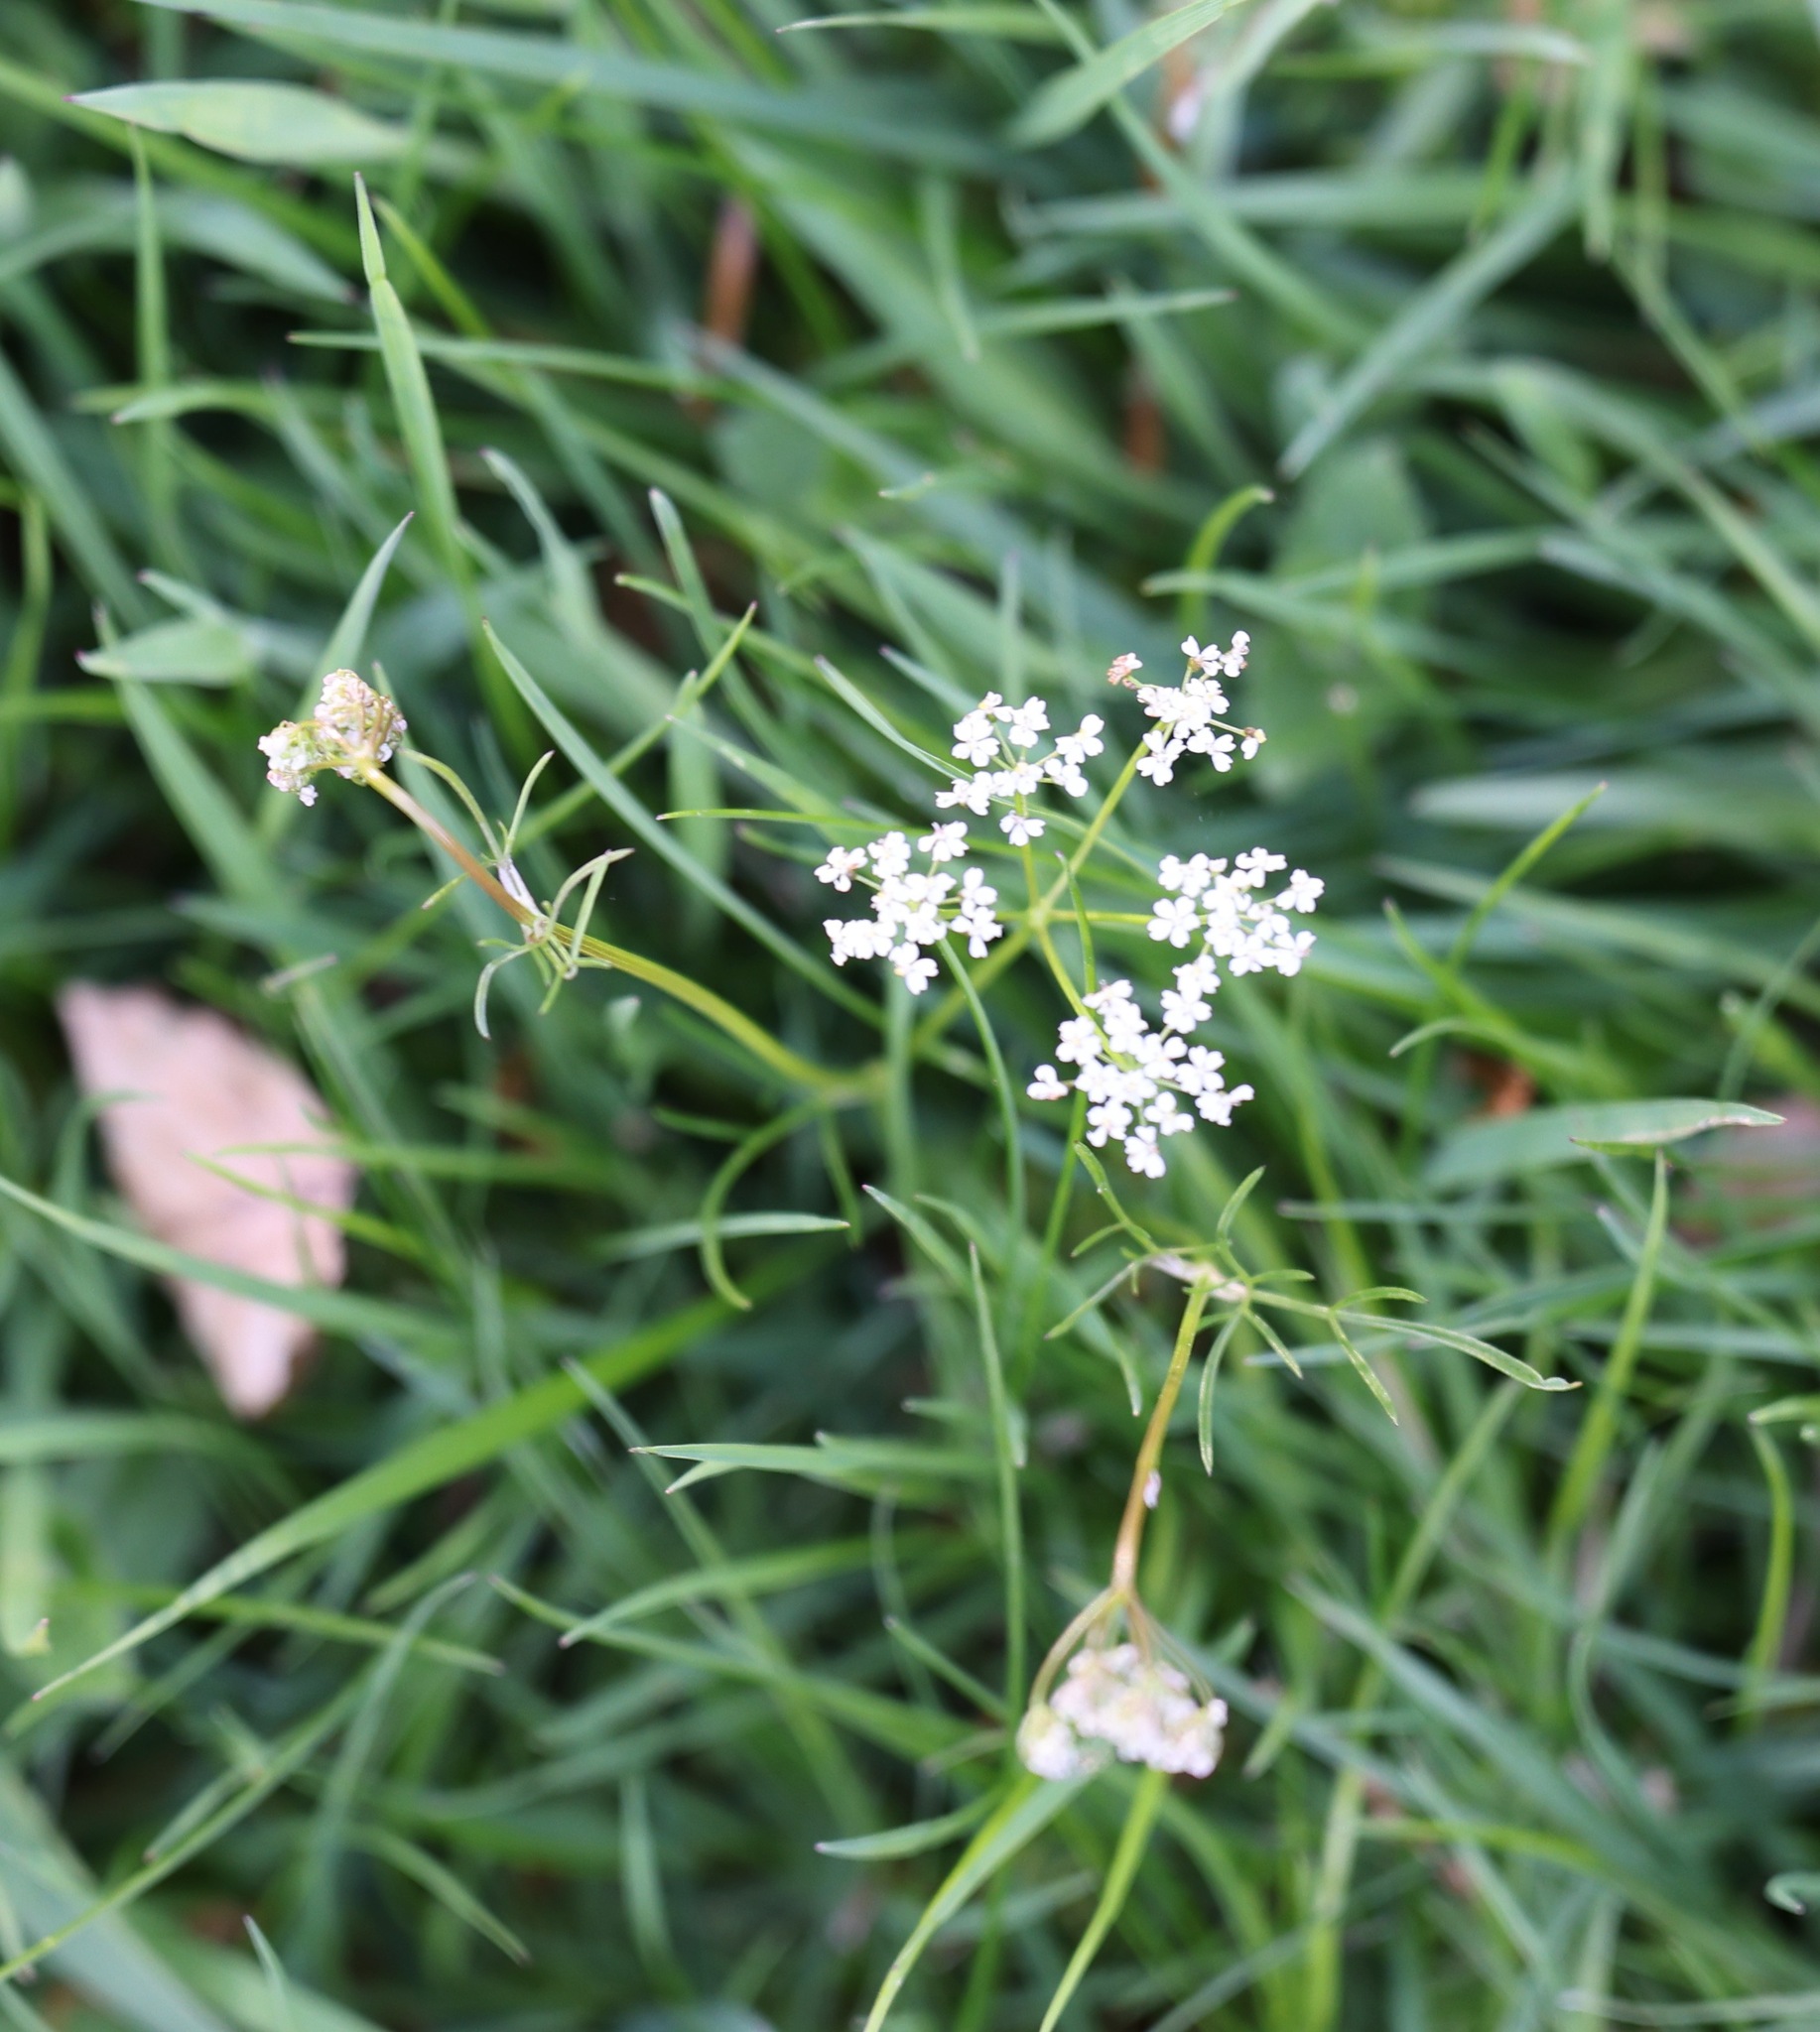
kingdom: Plantae
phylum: Tracheophyta
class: Magnoliopsida
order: Apiales
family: Apiaceae
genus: Conopodium
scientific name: Conopodium majus
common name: Pignut
